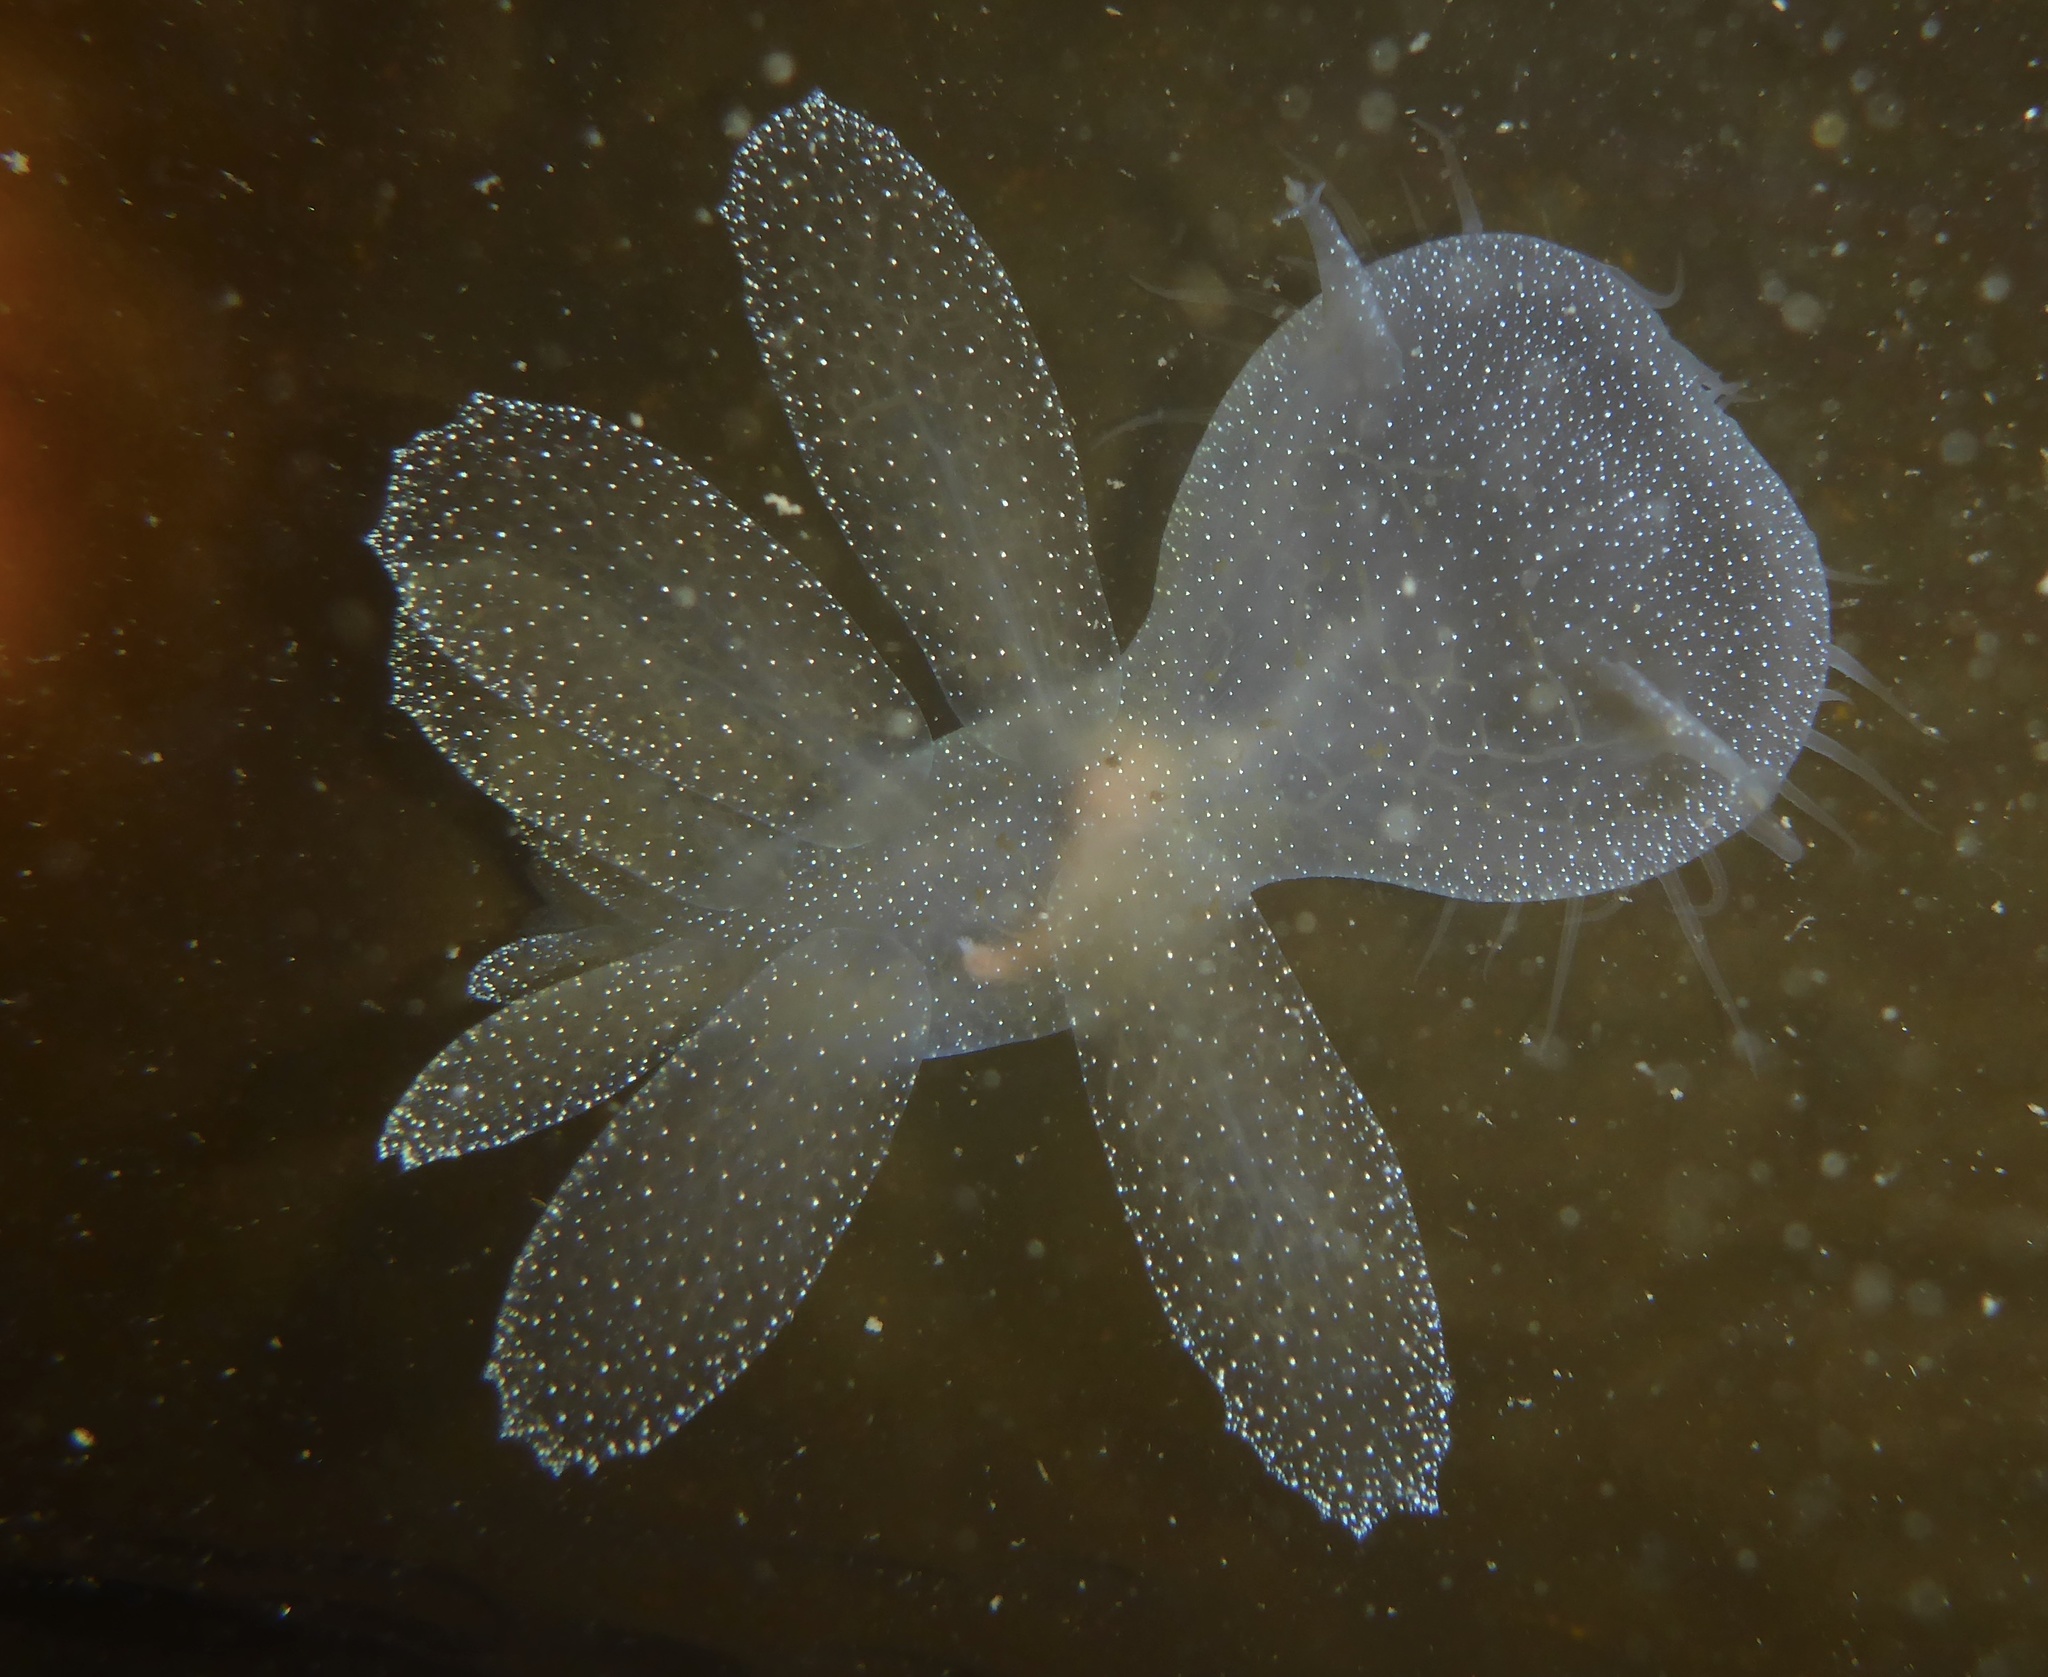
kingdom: Animalia
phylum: Mollusca
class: Gastropoda
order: Nudibranchia
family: Tethydidae
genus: Melibe
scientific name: Melibe leonina
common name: Lion nudibranch
